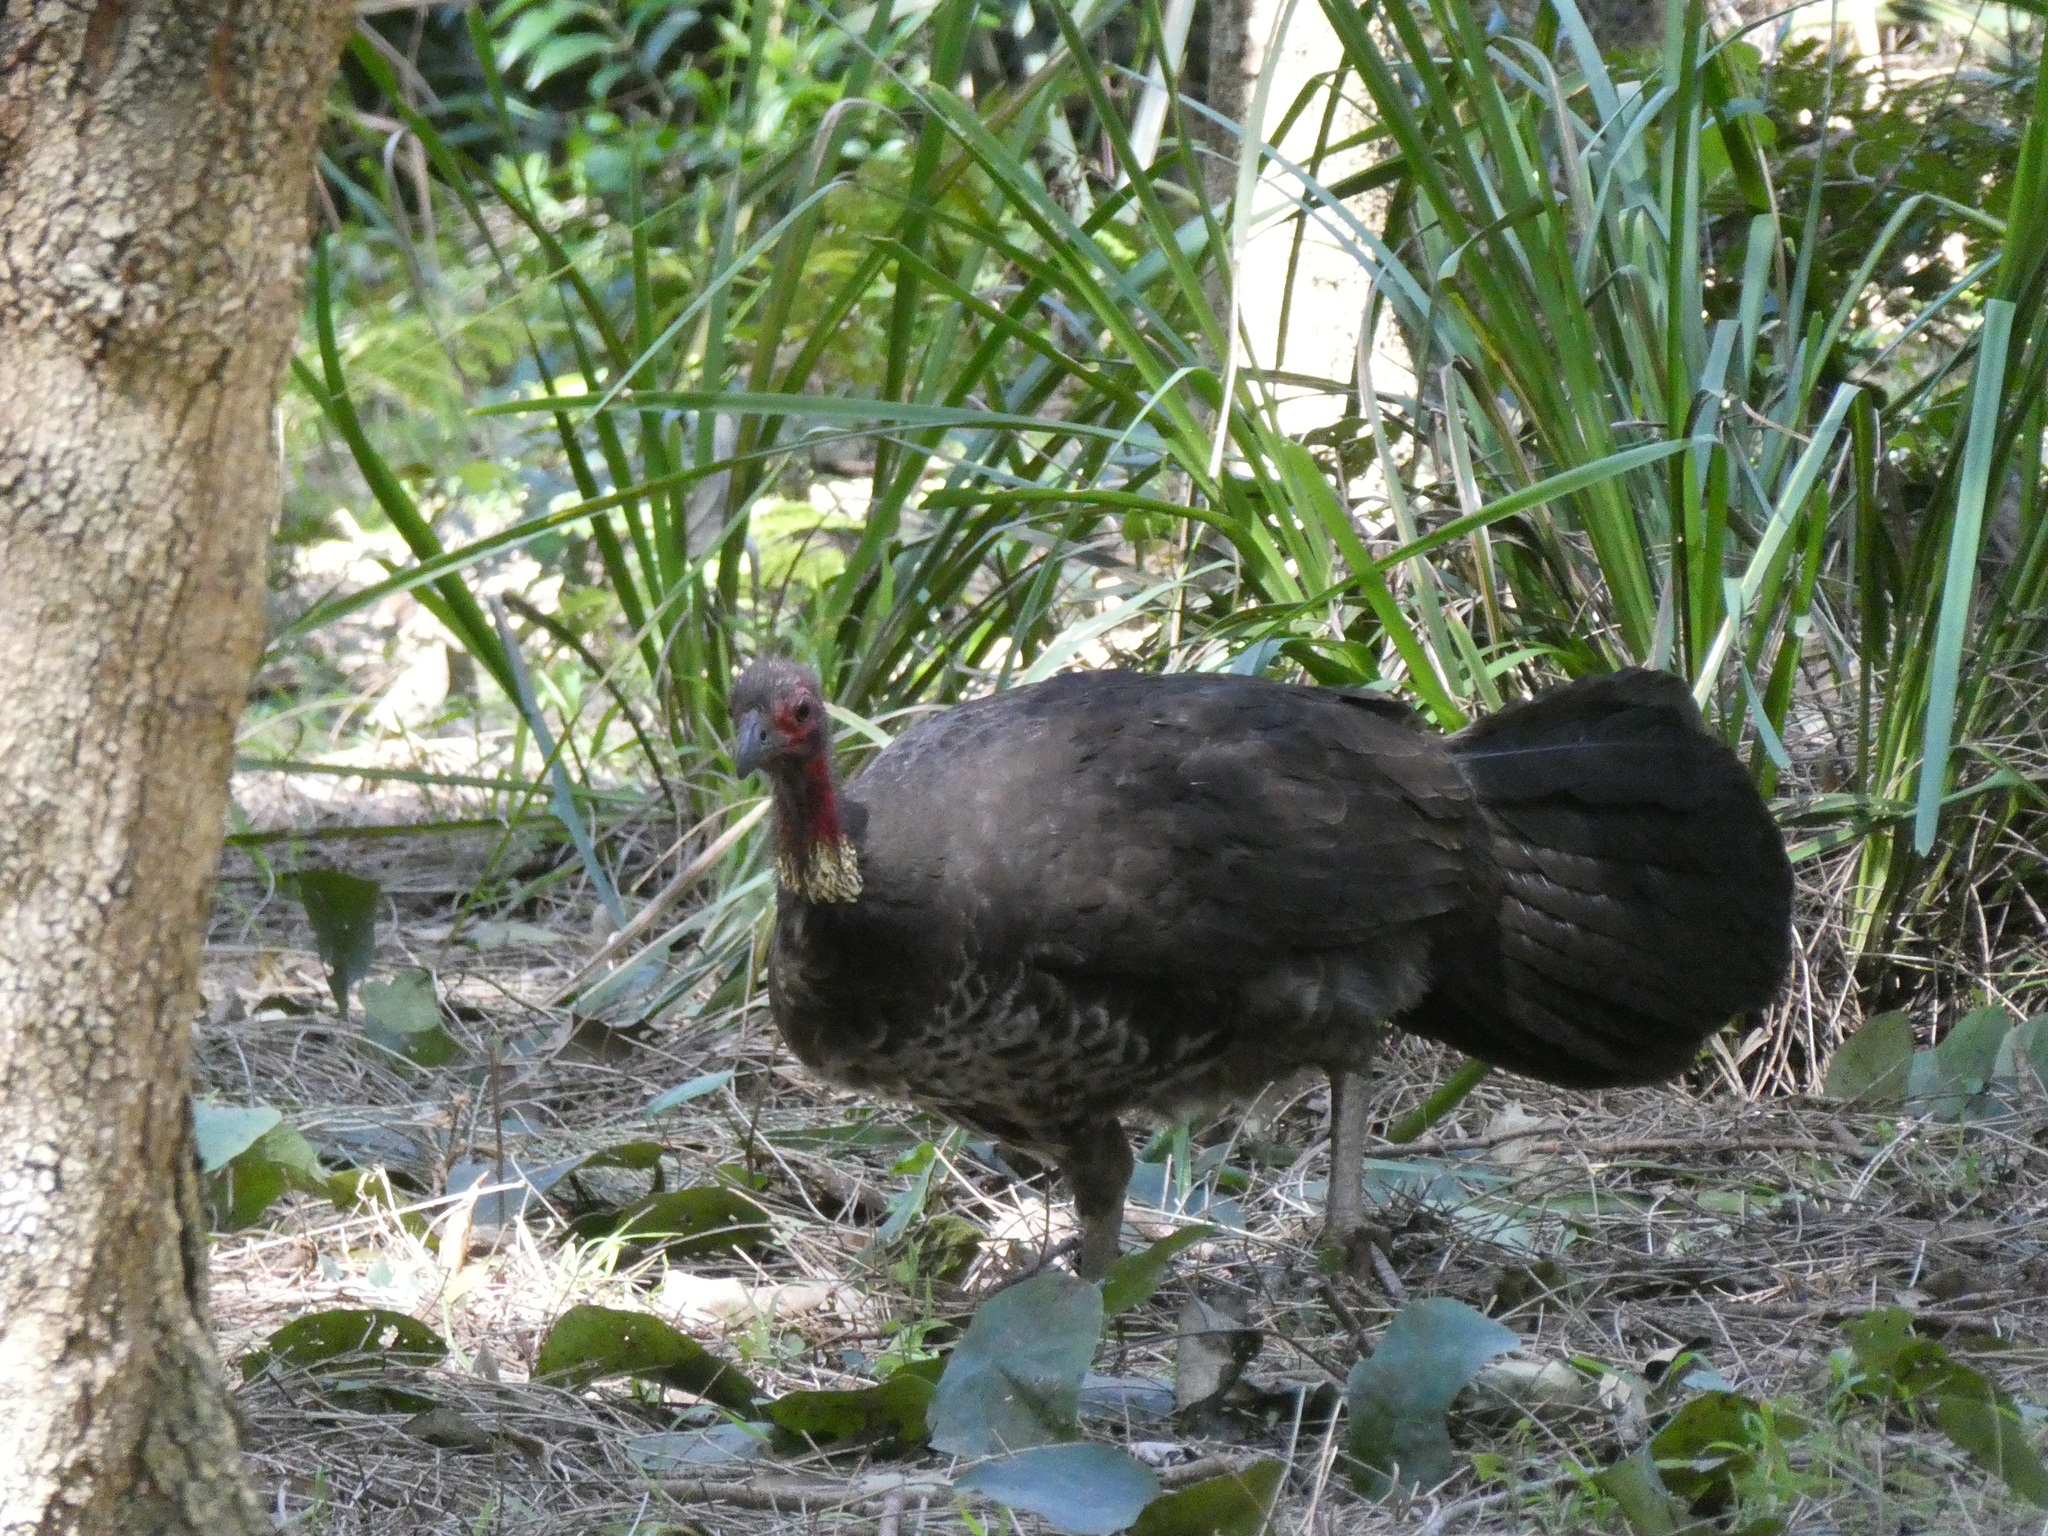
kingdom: Animalia
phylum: Chordata
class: Aves
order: Galliformes
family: Megapodiidae
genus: Alectura
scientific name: Alectura lathami
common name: Australian brushturkey
